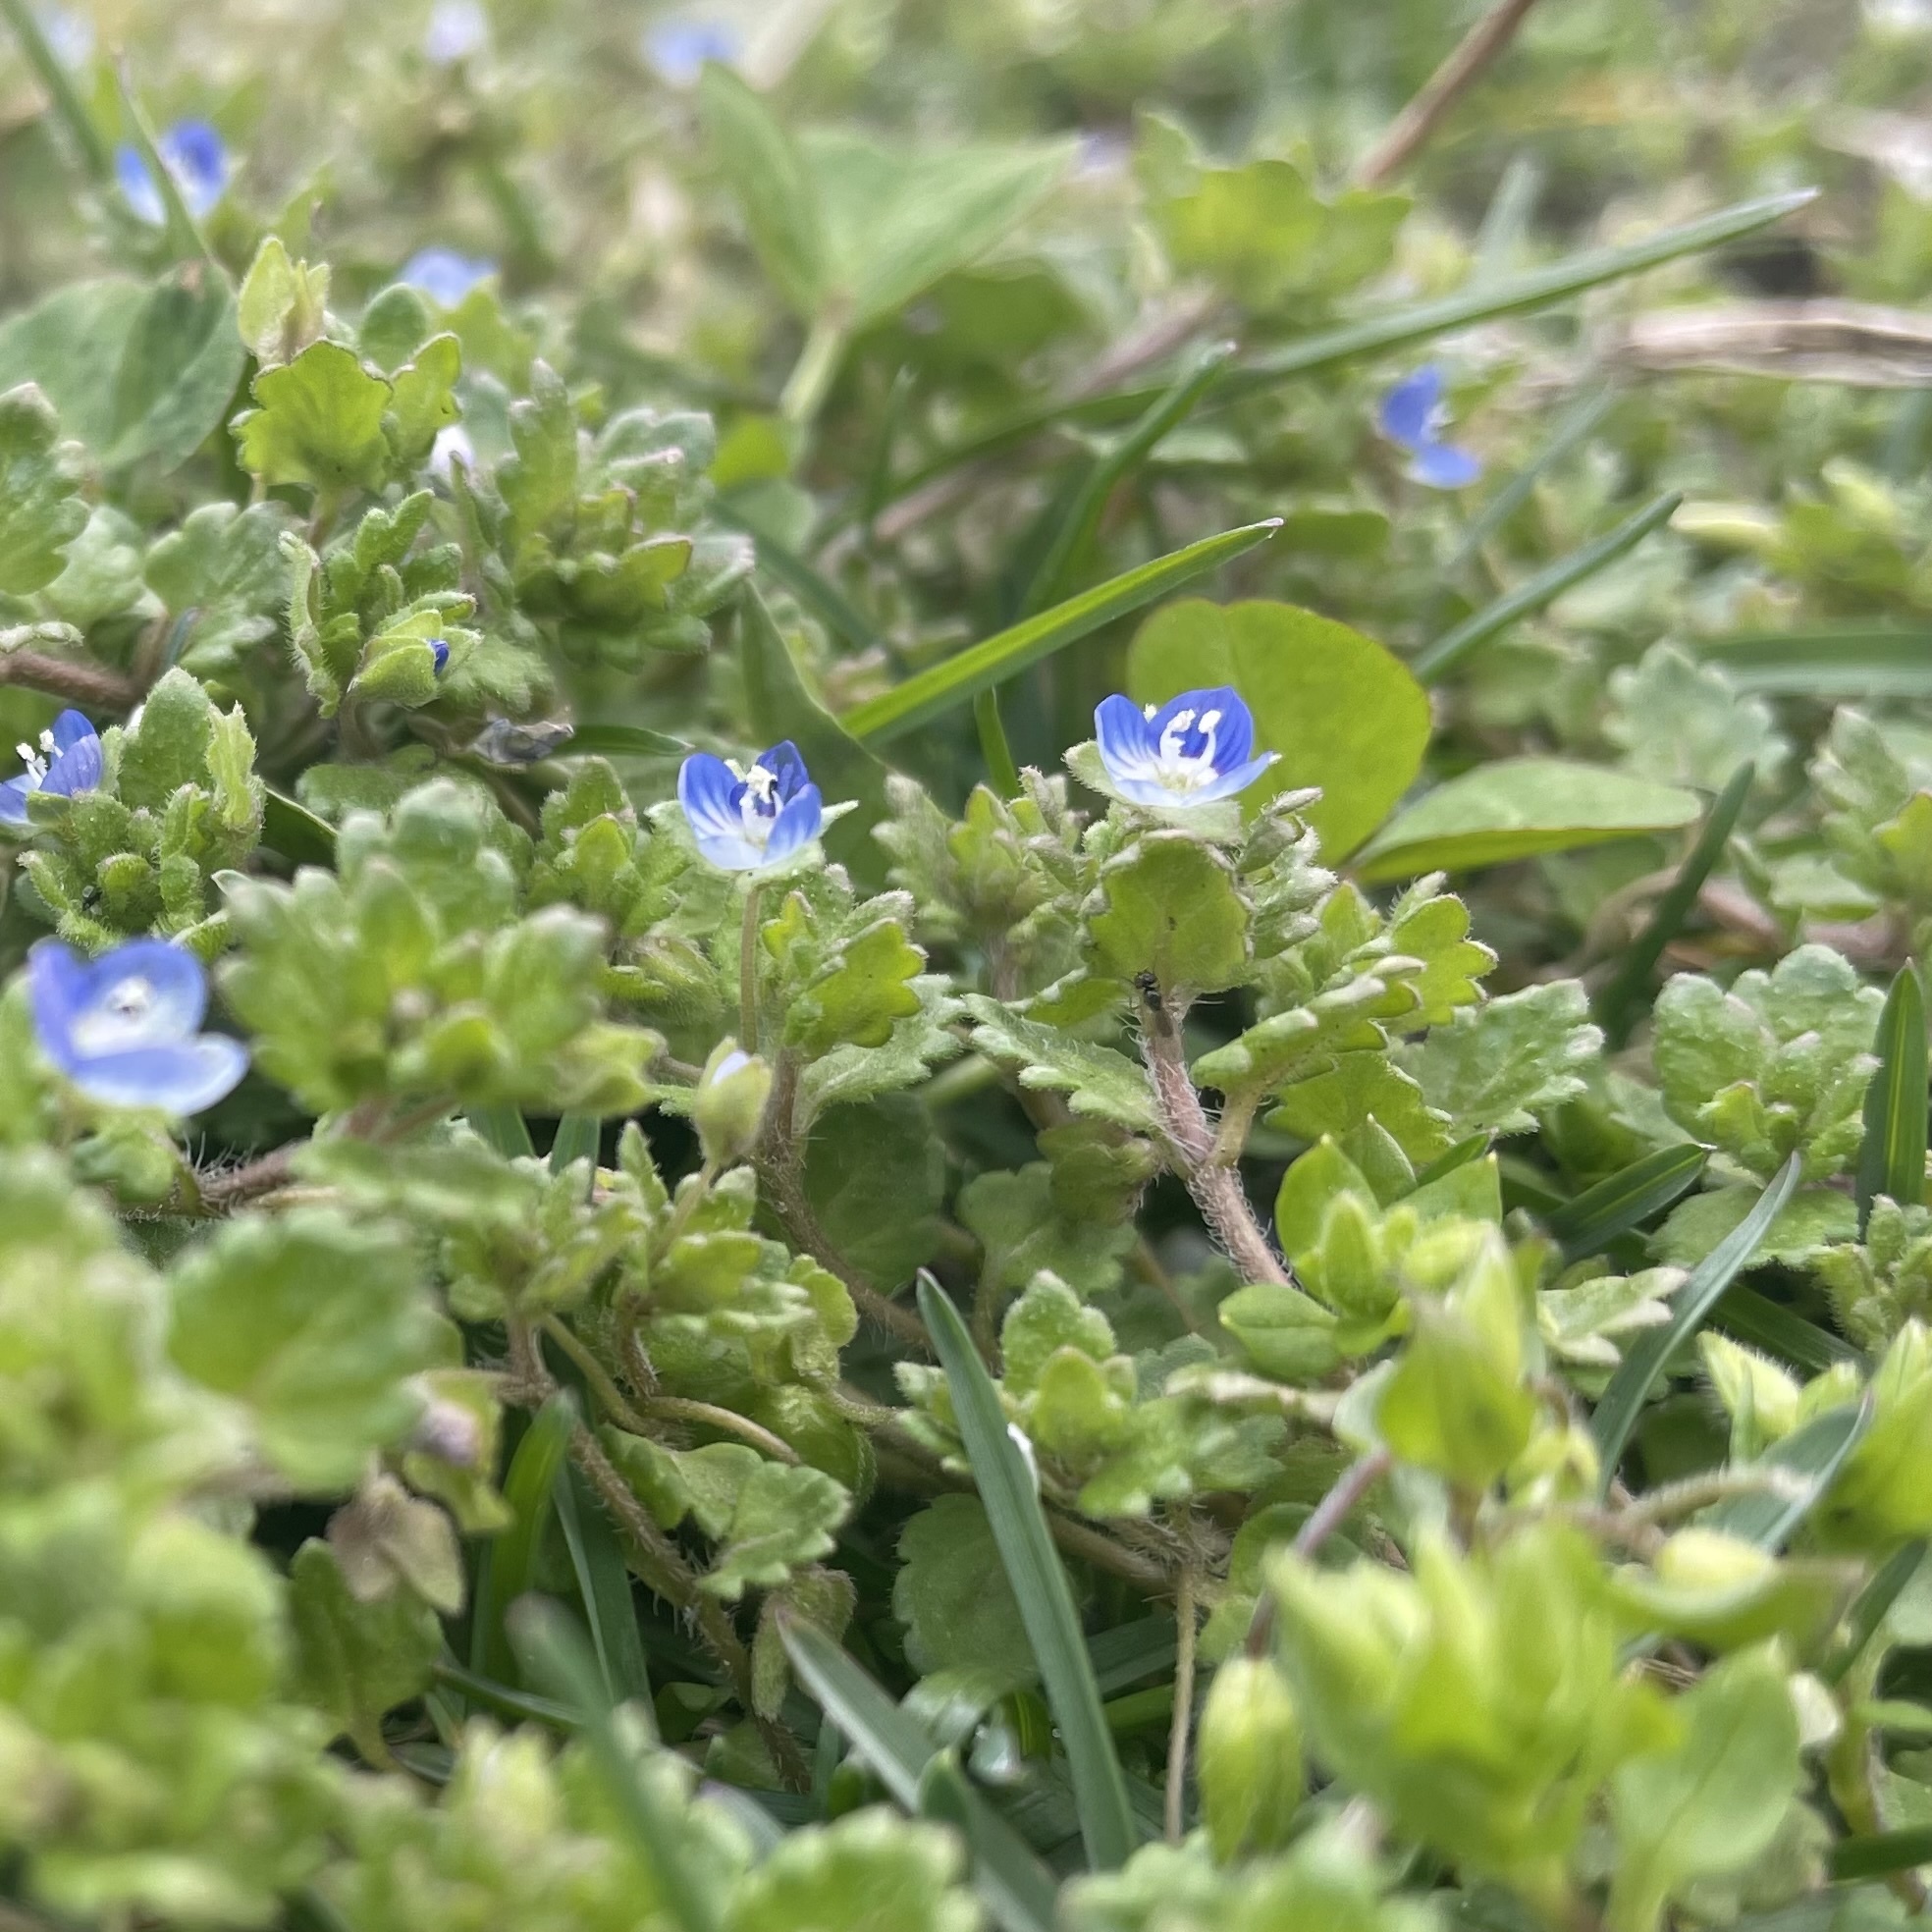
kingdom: Plantae
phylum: Tracheophyta
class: Magnoliopsida
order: Lamiales
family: Plantaginaceae
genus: Veronica
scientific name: Veronica polita
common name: Grey field-speedwell
